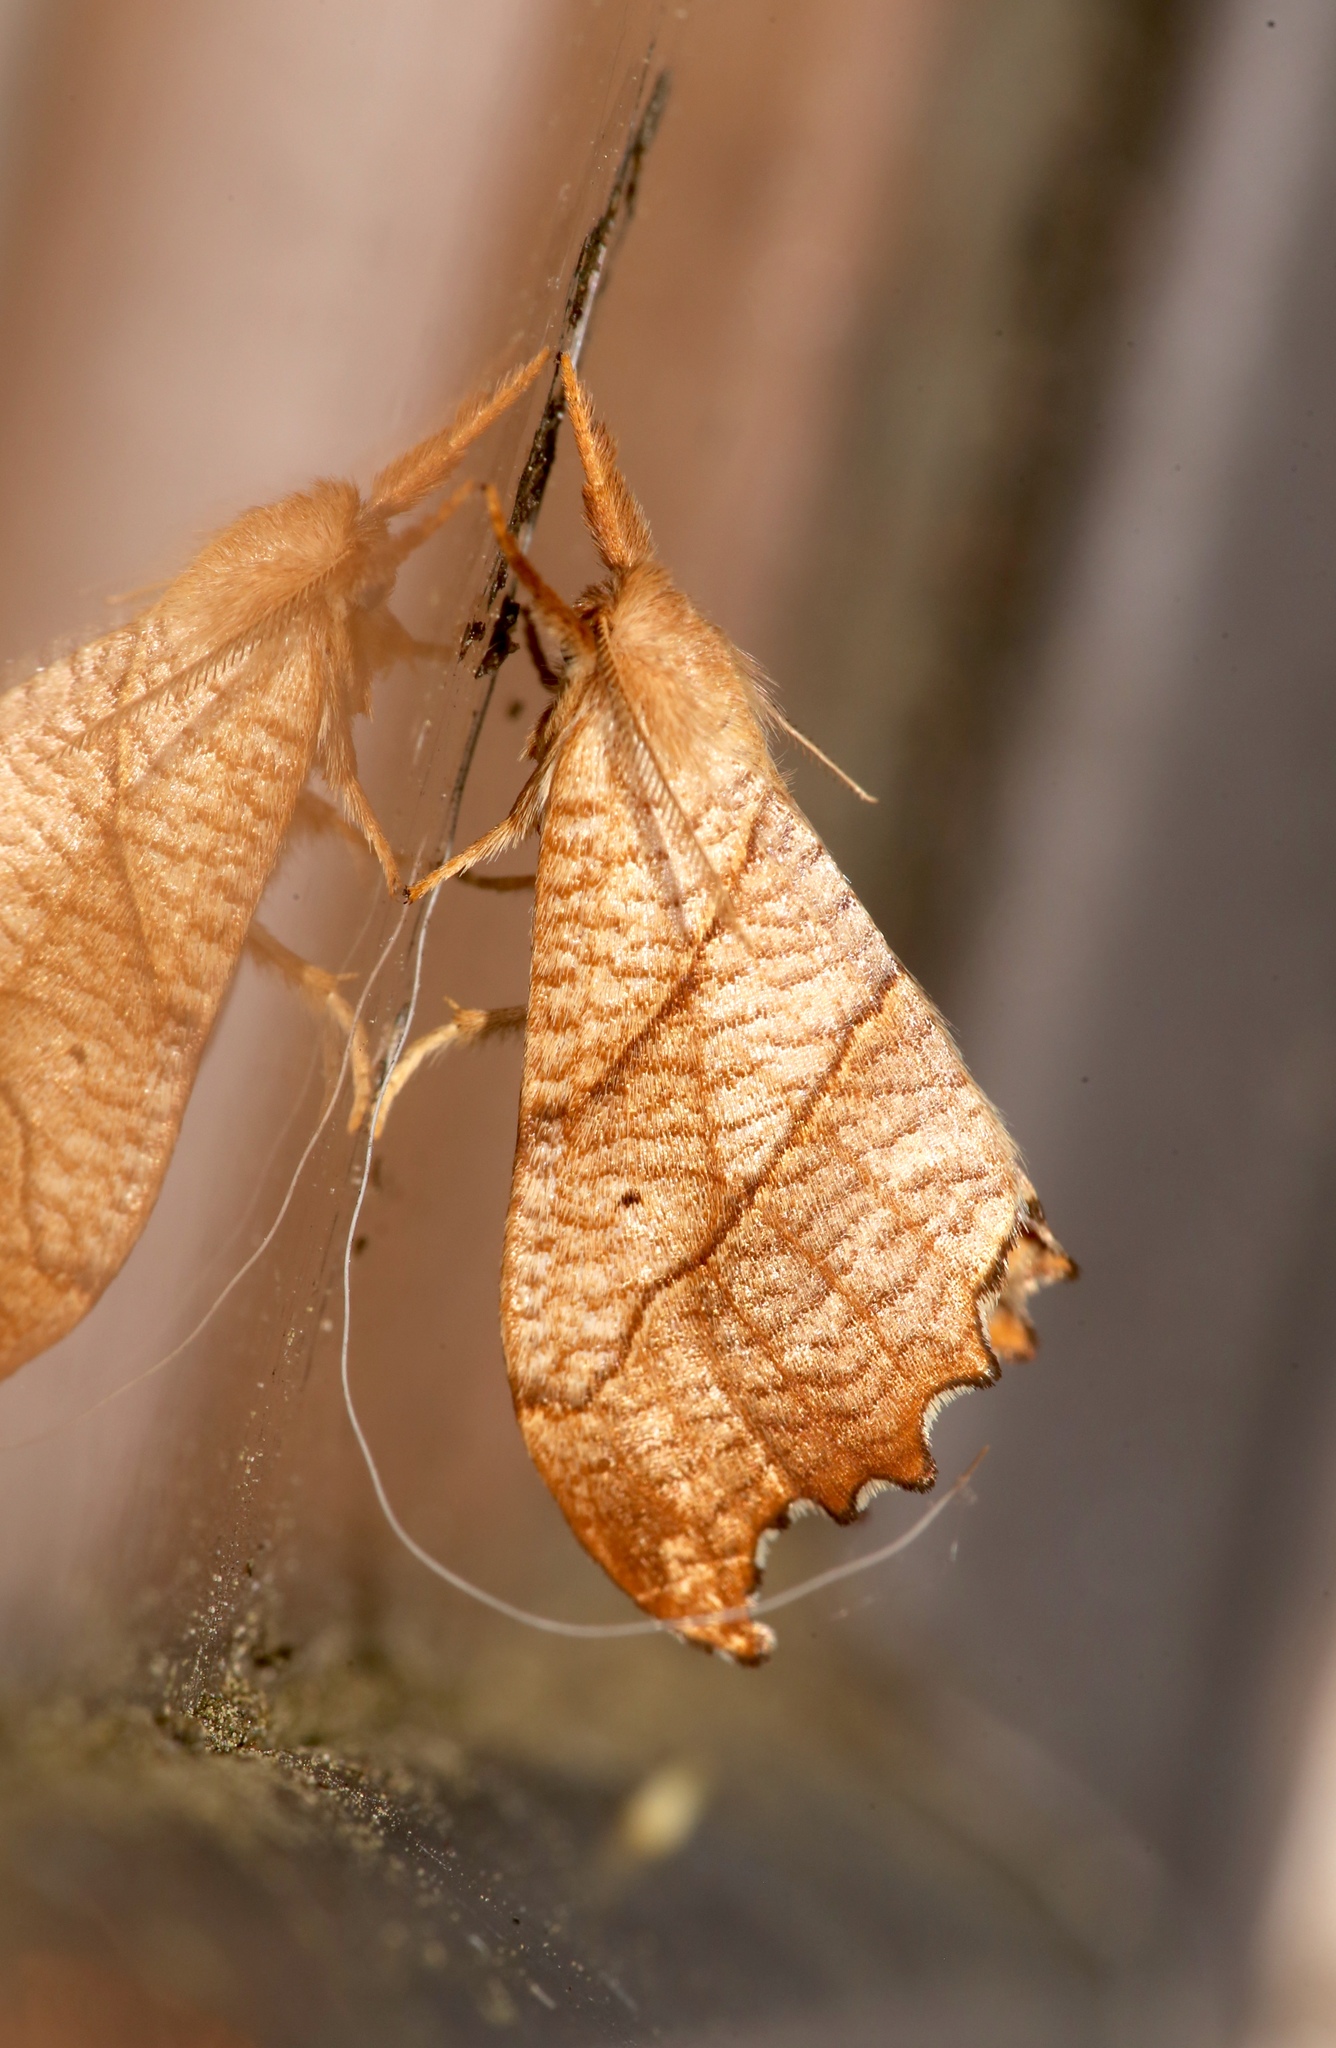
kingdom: Animalia
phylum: Arthropoda
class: Insecta
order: Lepidoptera
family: Drepanidae
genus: Falcaria
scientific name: Falcaria bilineata
